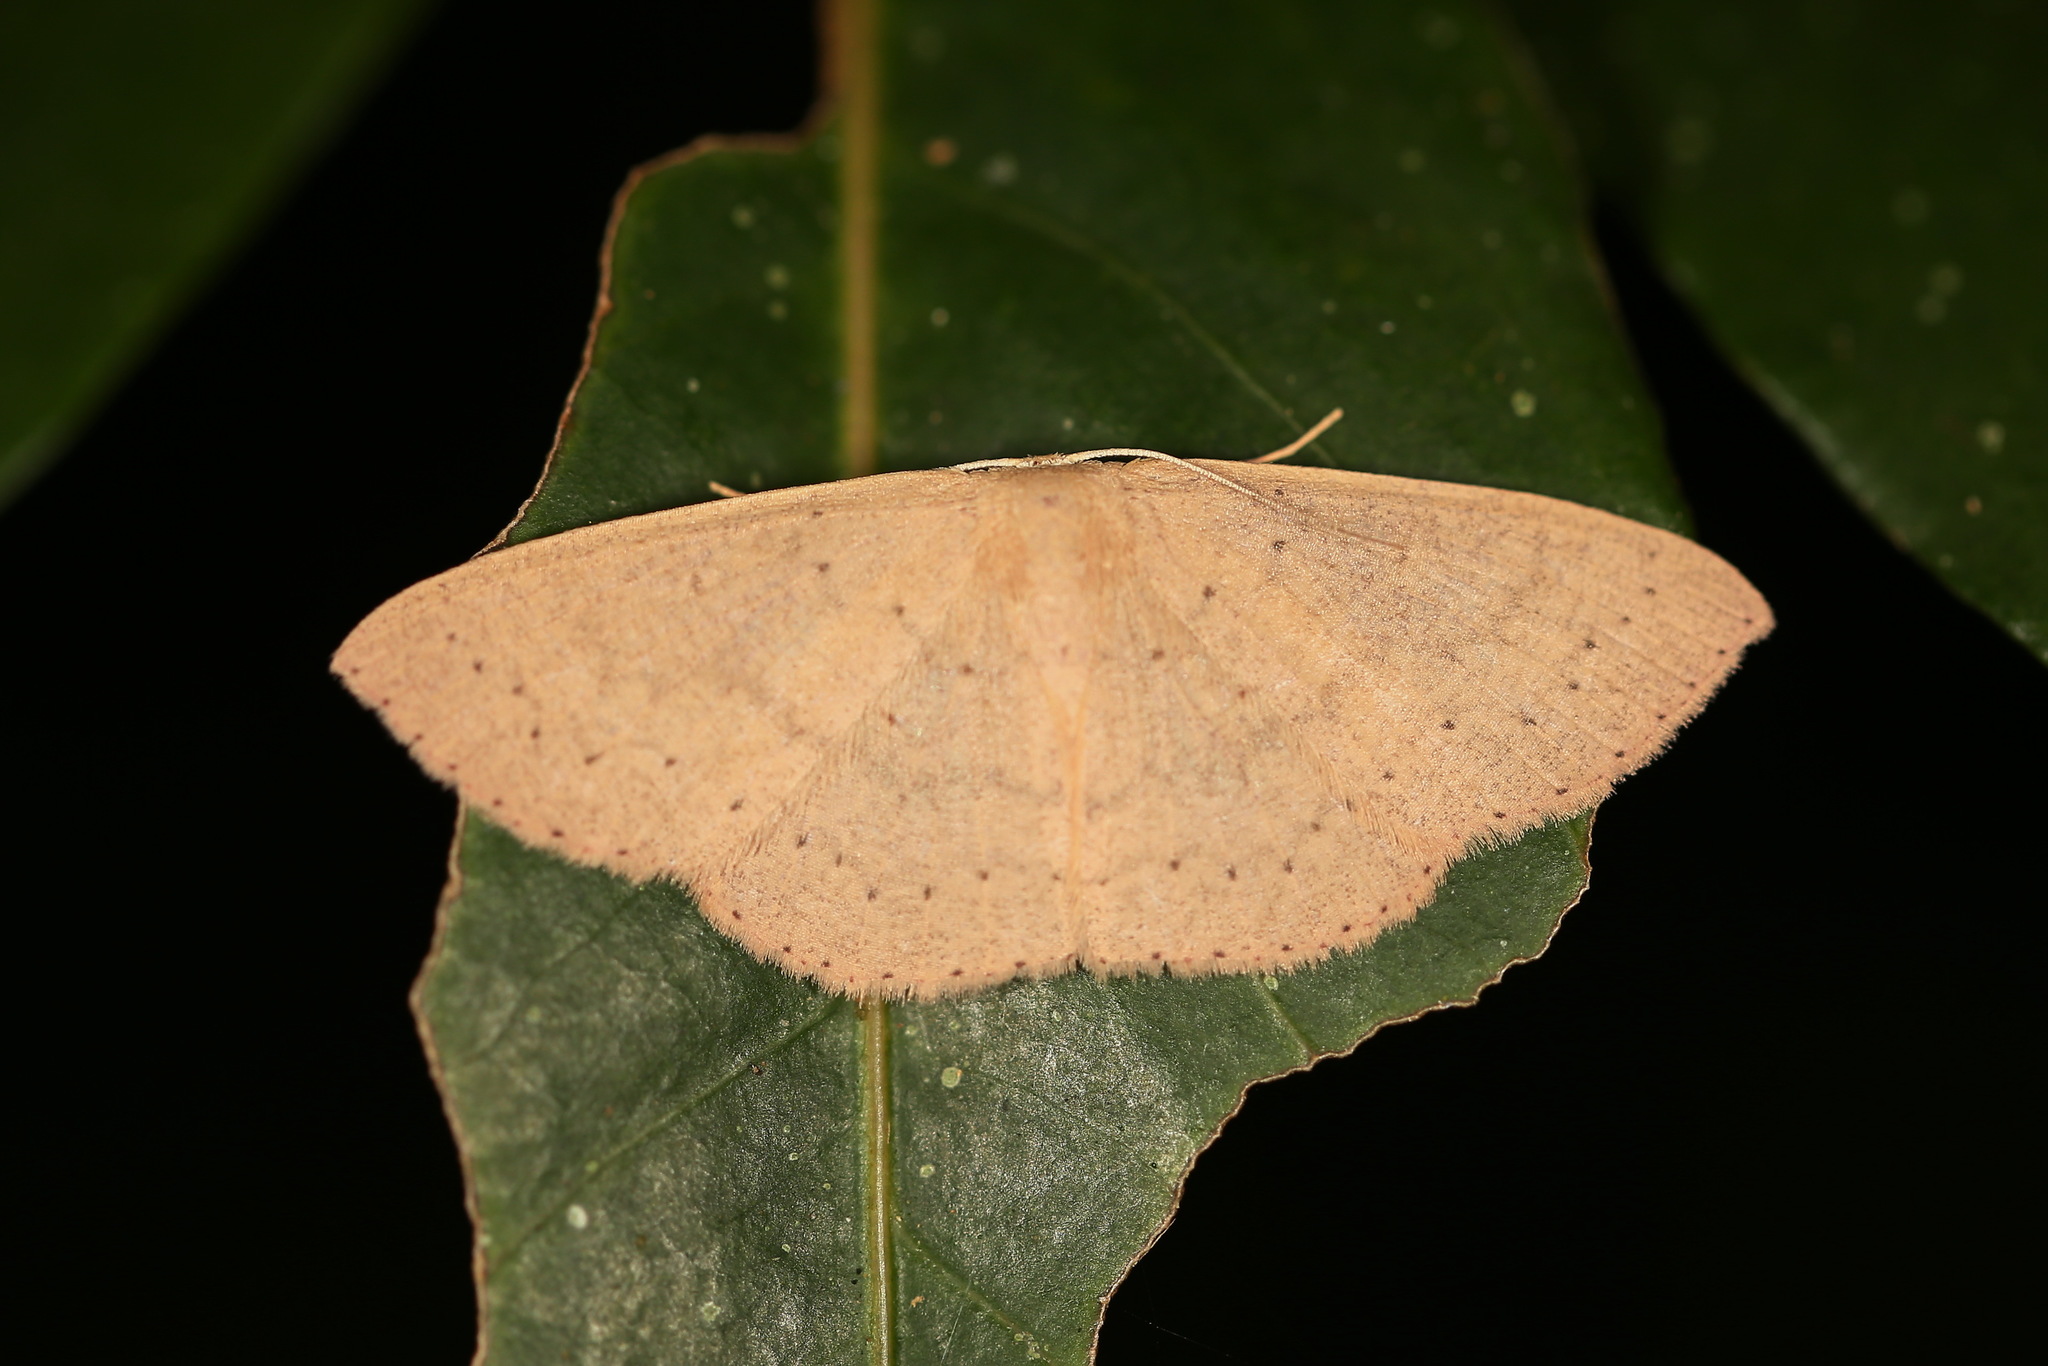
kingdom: Animalia
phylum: Arthropoda
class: Insecta
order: Lepidoptera
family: Geometridae
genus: Cyclophora
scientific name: Cyclophora obstataria
